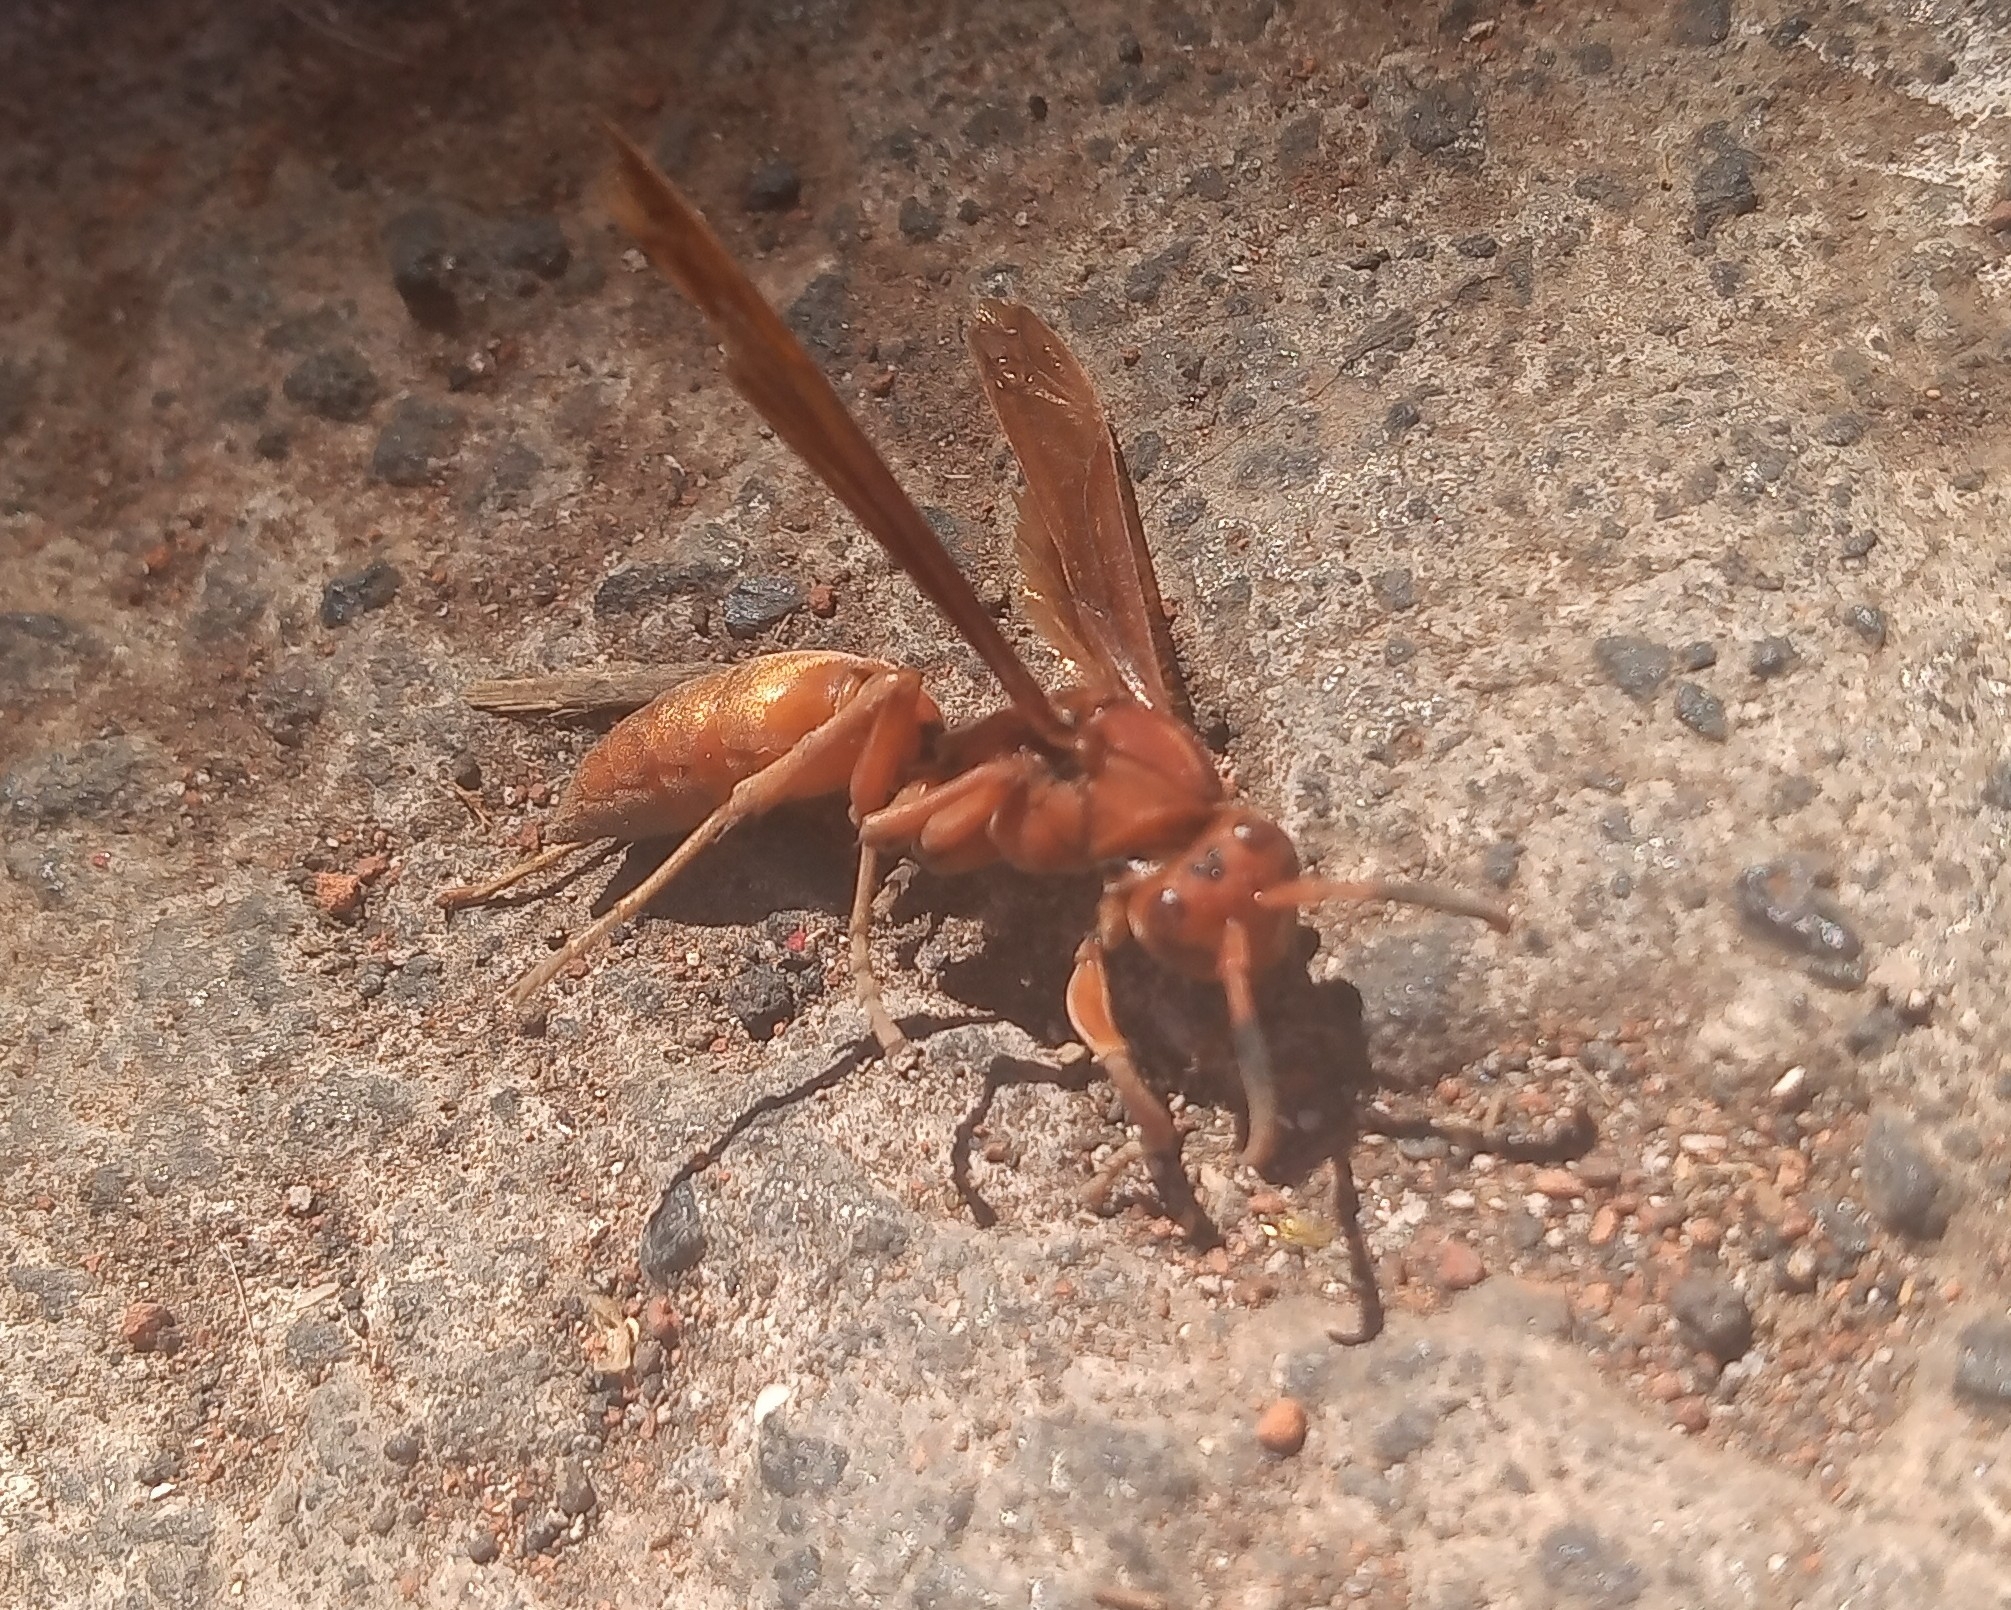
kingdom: Animalia
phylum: Arthropoda
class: Insecta
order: Hymenoptera
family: Eumenidae
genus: Polistes
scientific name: Polistes canadensis
